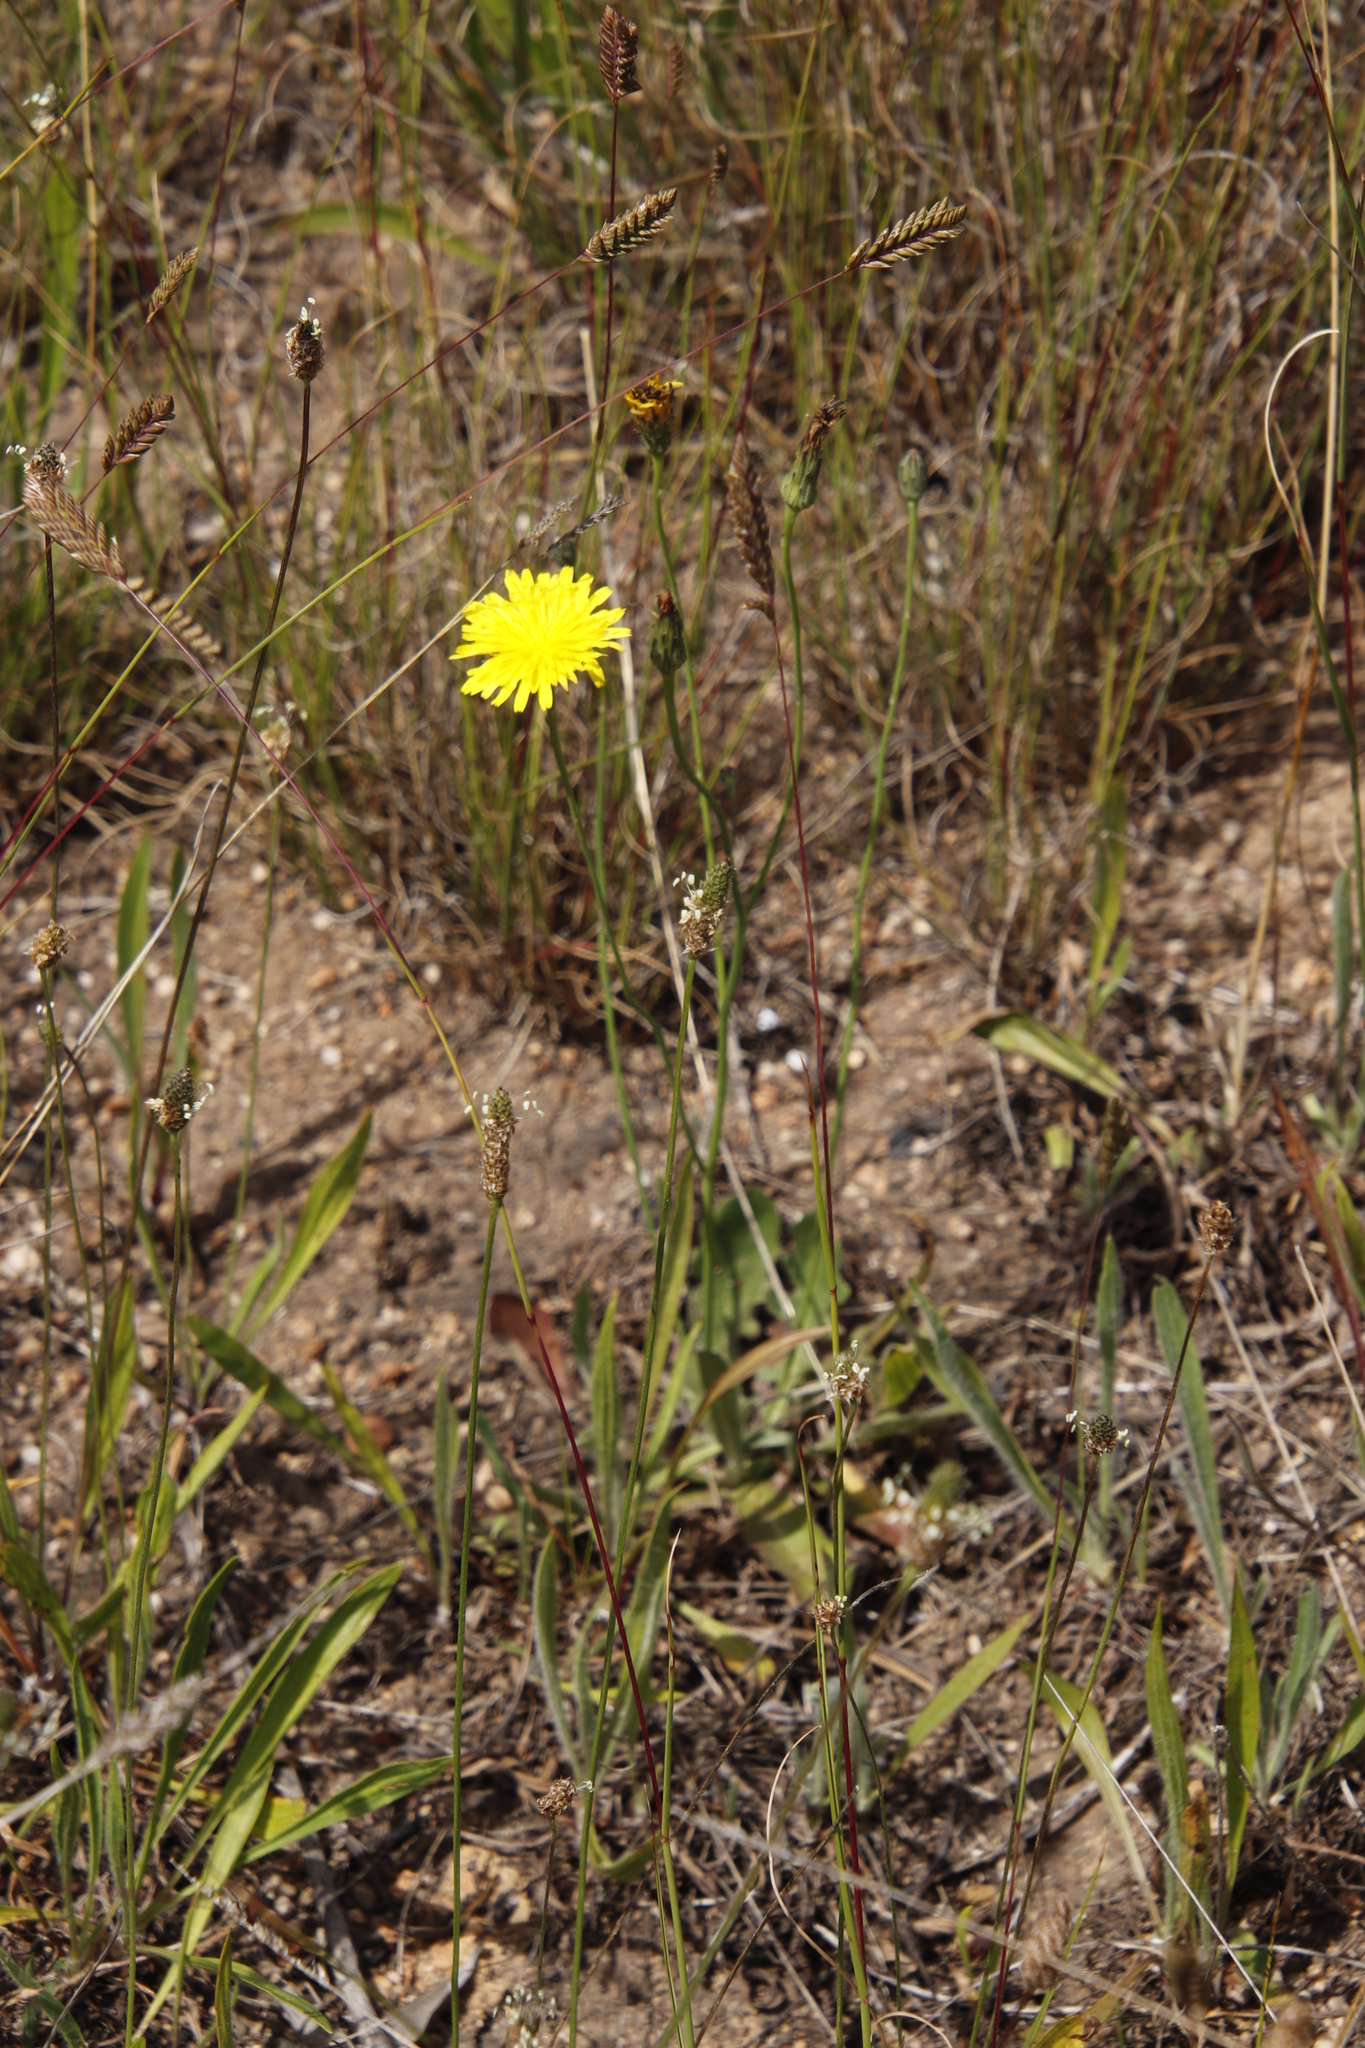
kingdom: Plantae
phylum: Tracheophyta
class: Magnoliopsida
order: Asterales
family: Asteraceae
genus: Hypochaeris
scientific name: Hypochaeris radicata
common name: Flatweed
